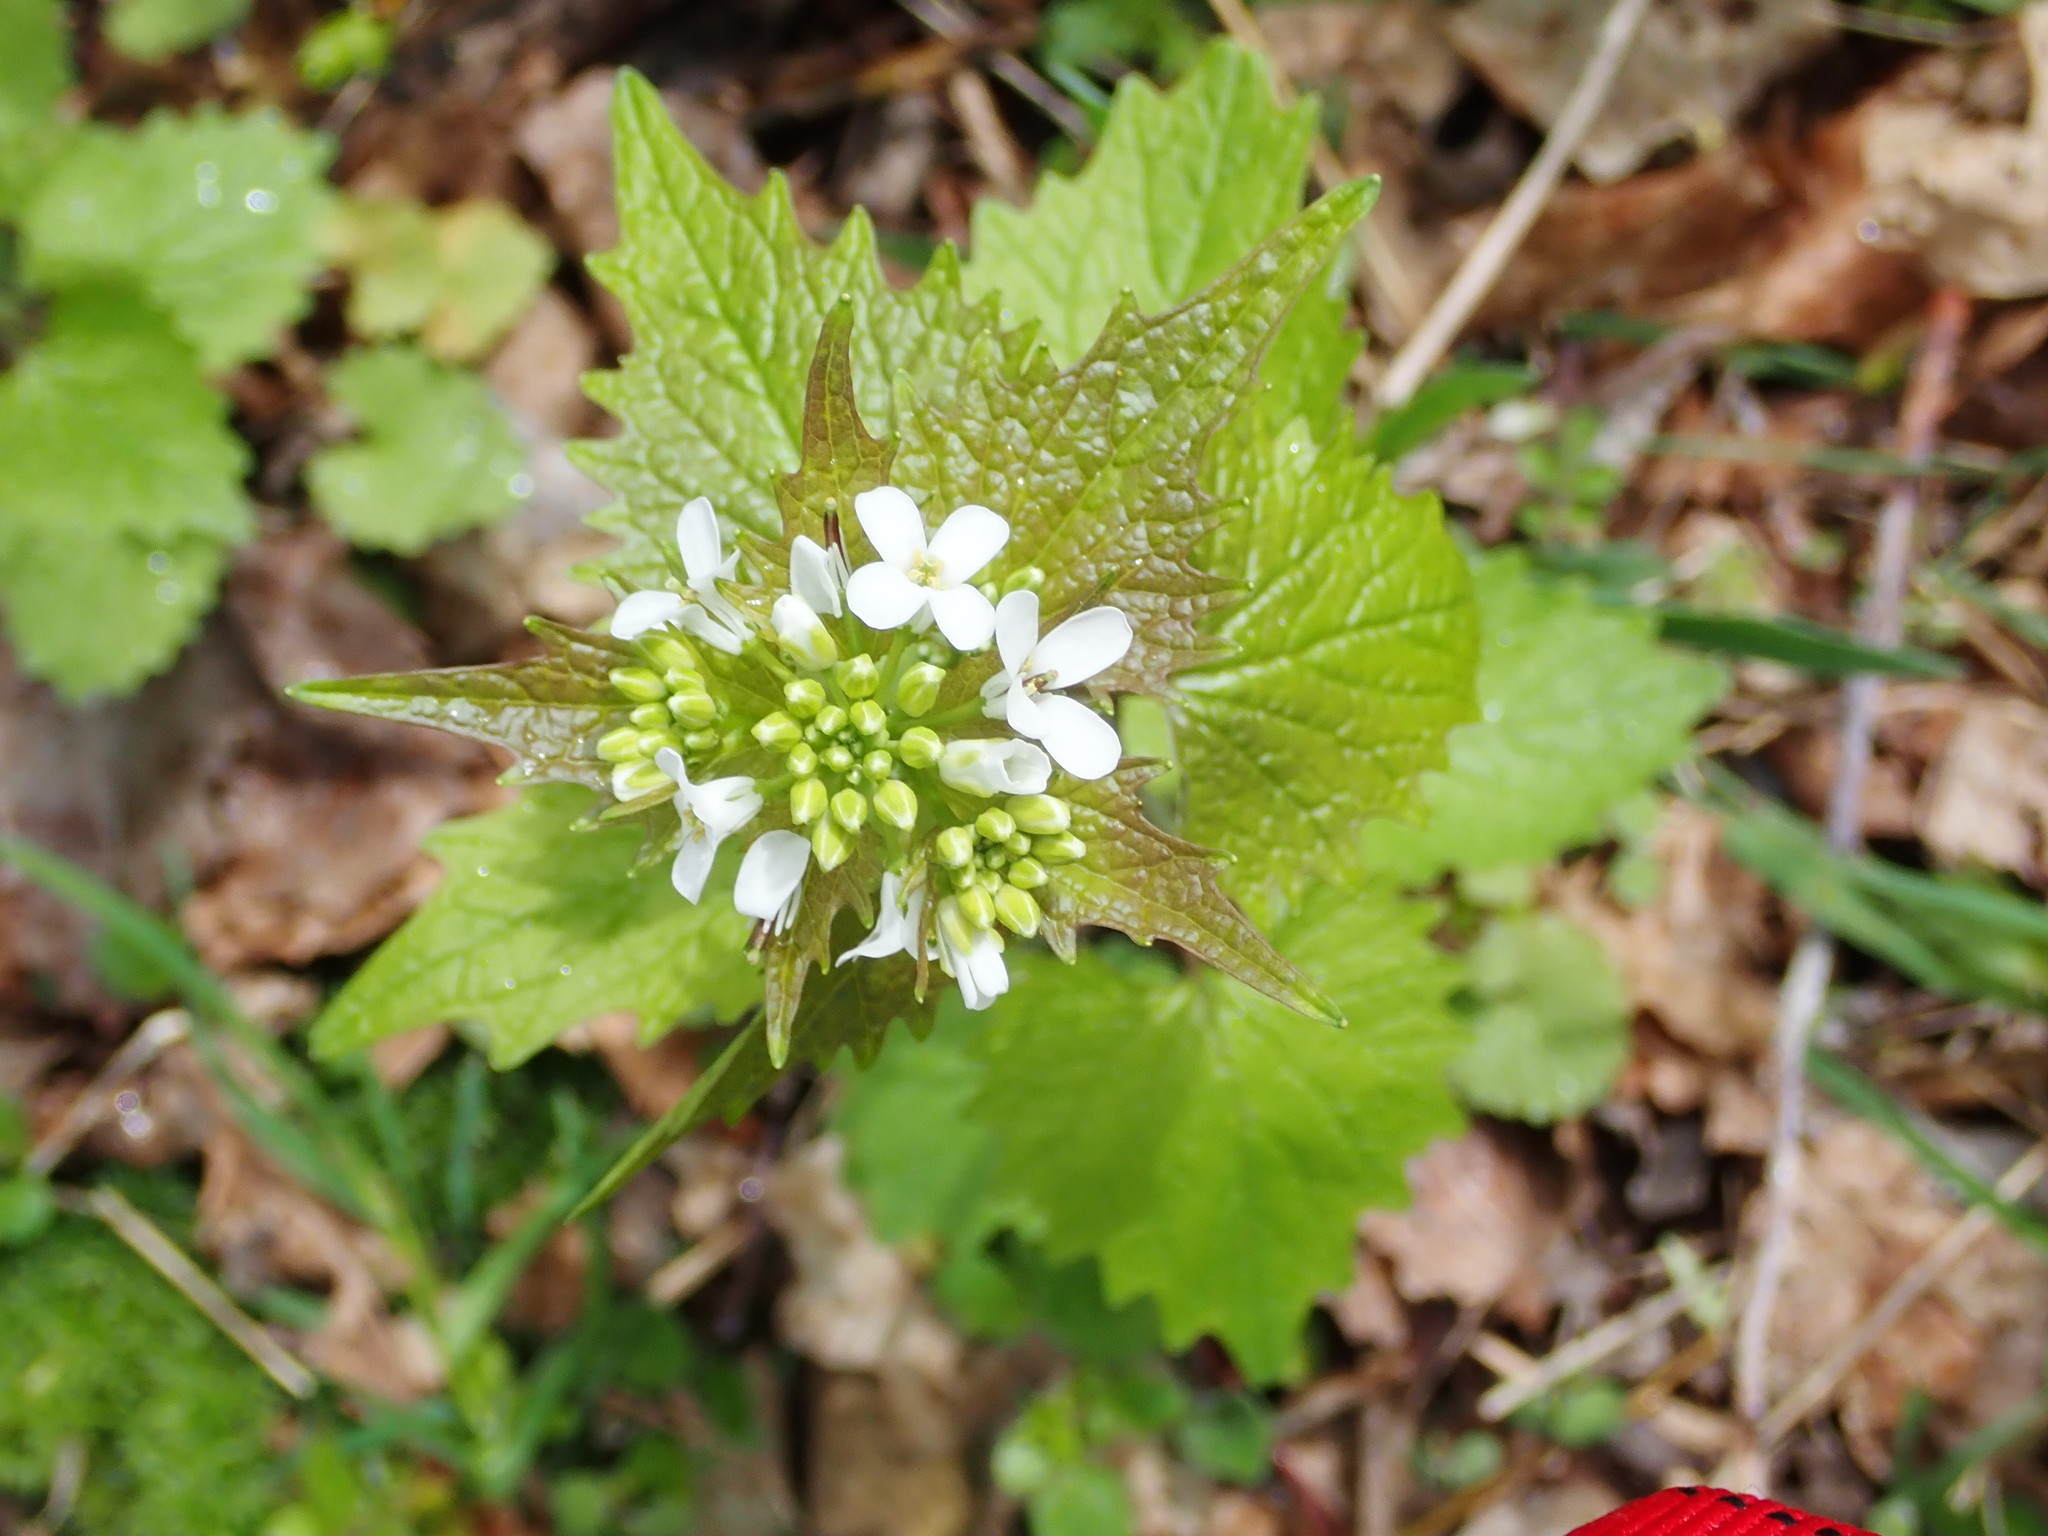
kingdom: Plantae
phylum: Tracheophyta
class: Magnoliopsida
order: Brassicales
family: Brassicaceae
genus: Alliaria
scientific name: Alliaria petiolata
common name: Garlic mustard
